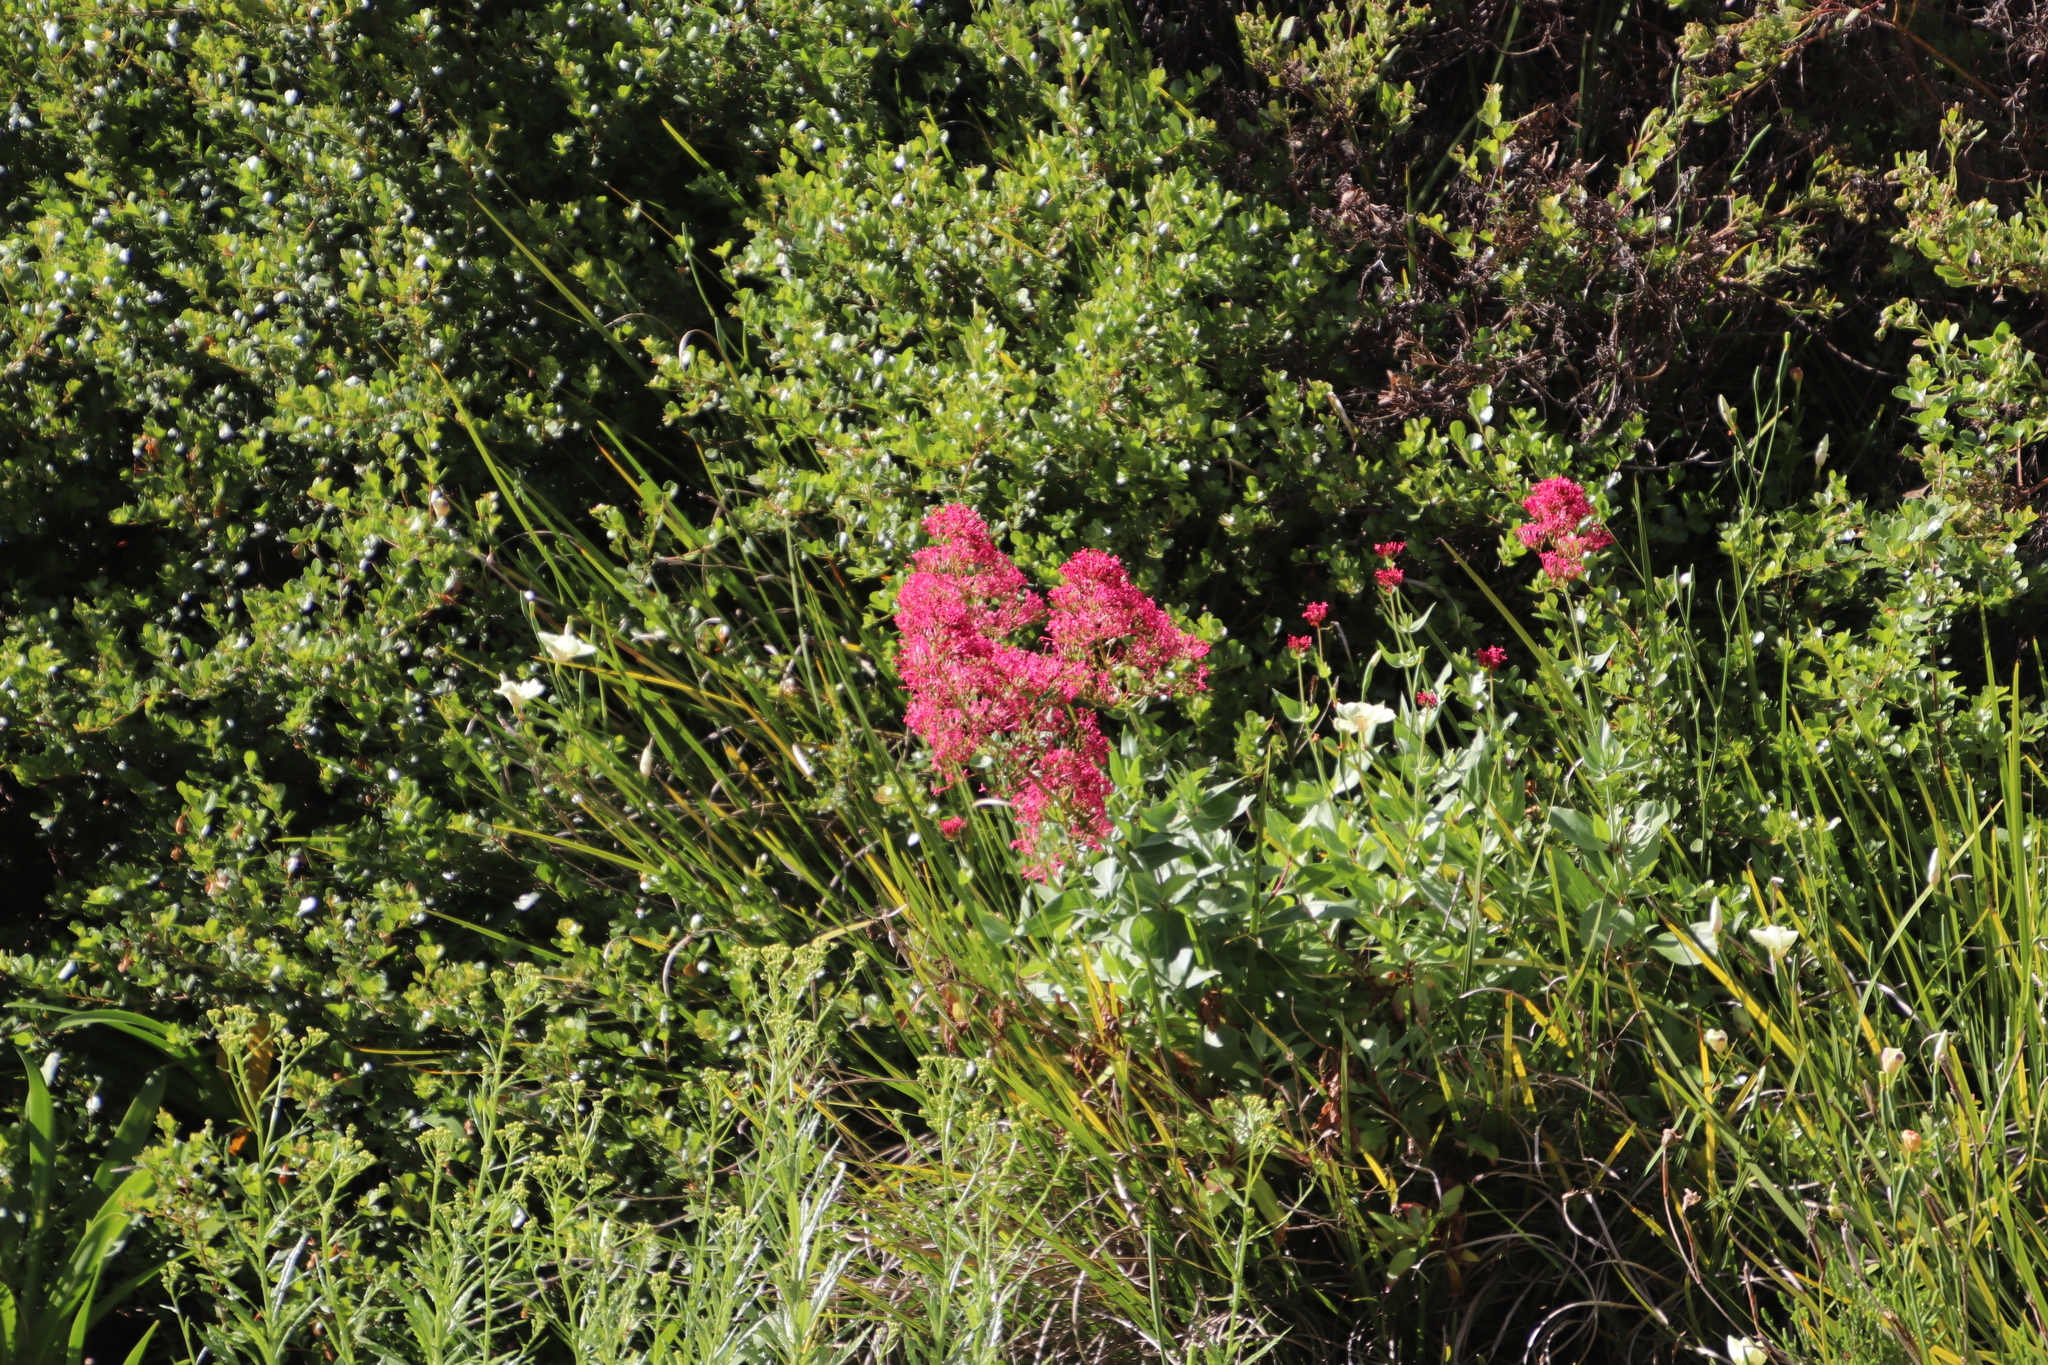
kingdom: Plantae
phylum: Tracheophyta
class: Magnoliopsida
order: Dipsacales
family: Caprifoliaceae
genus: Centranthus
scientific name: Centranthus ruber
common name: Red valerian
